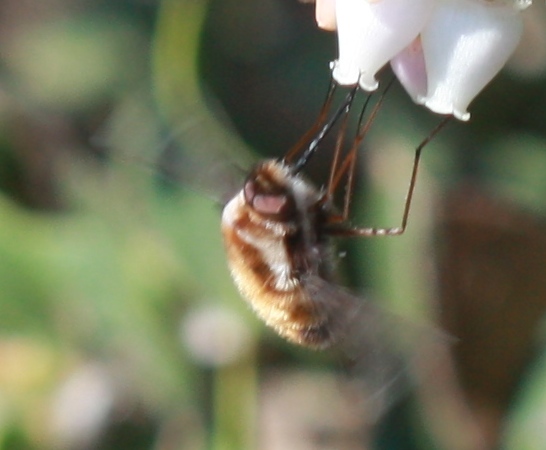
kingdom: Animalia
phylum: Arthropoda
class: Insecta
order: Diptera
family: Bombyliidae
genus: Bombylius
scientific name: Bombylius major
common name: Bee fly
